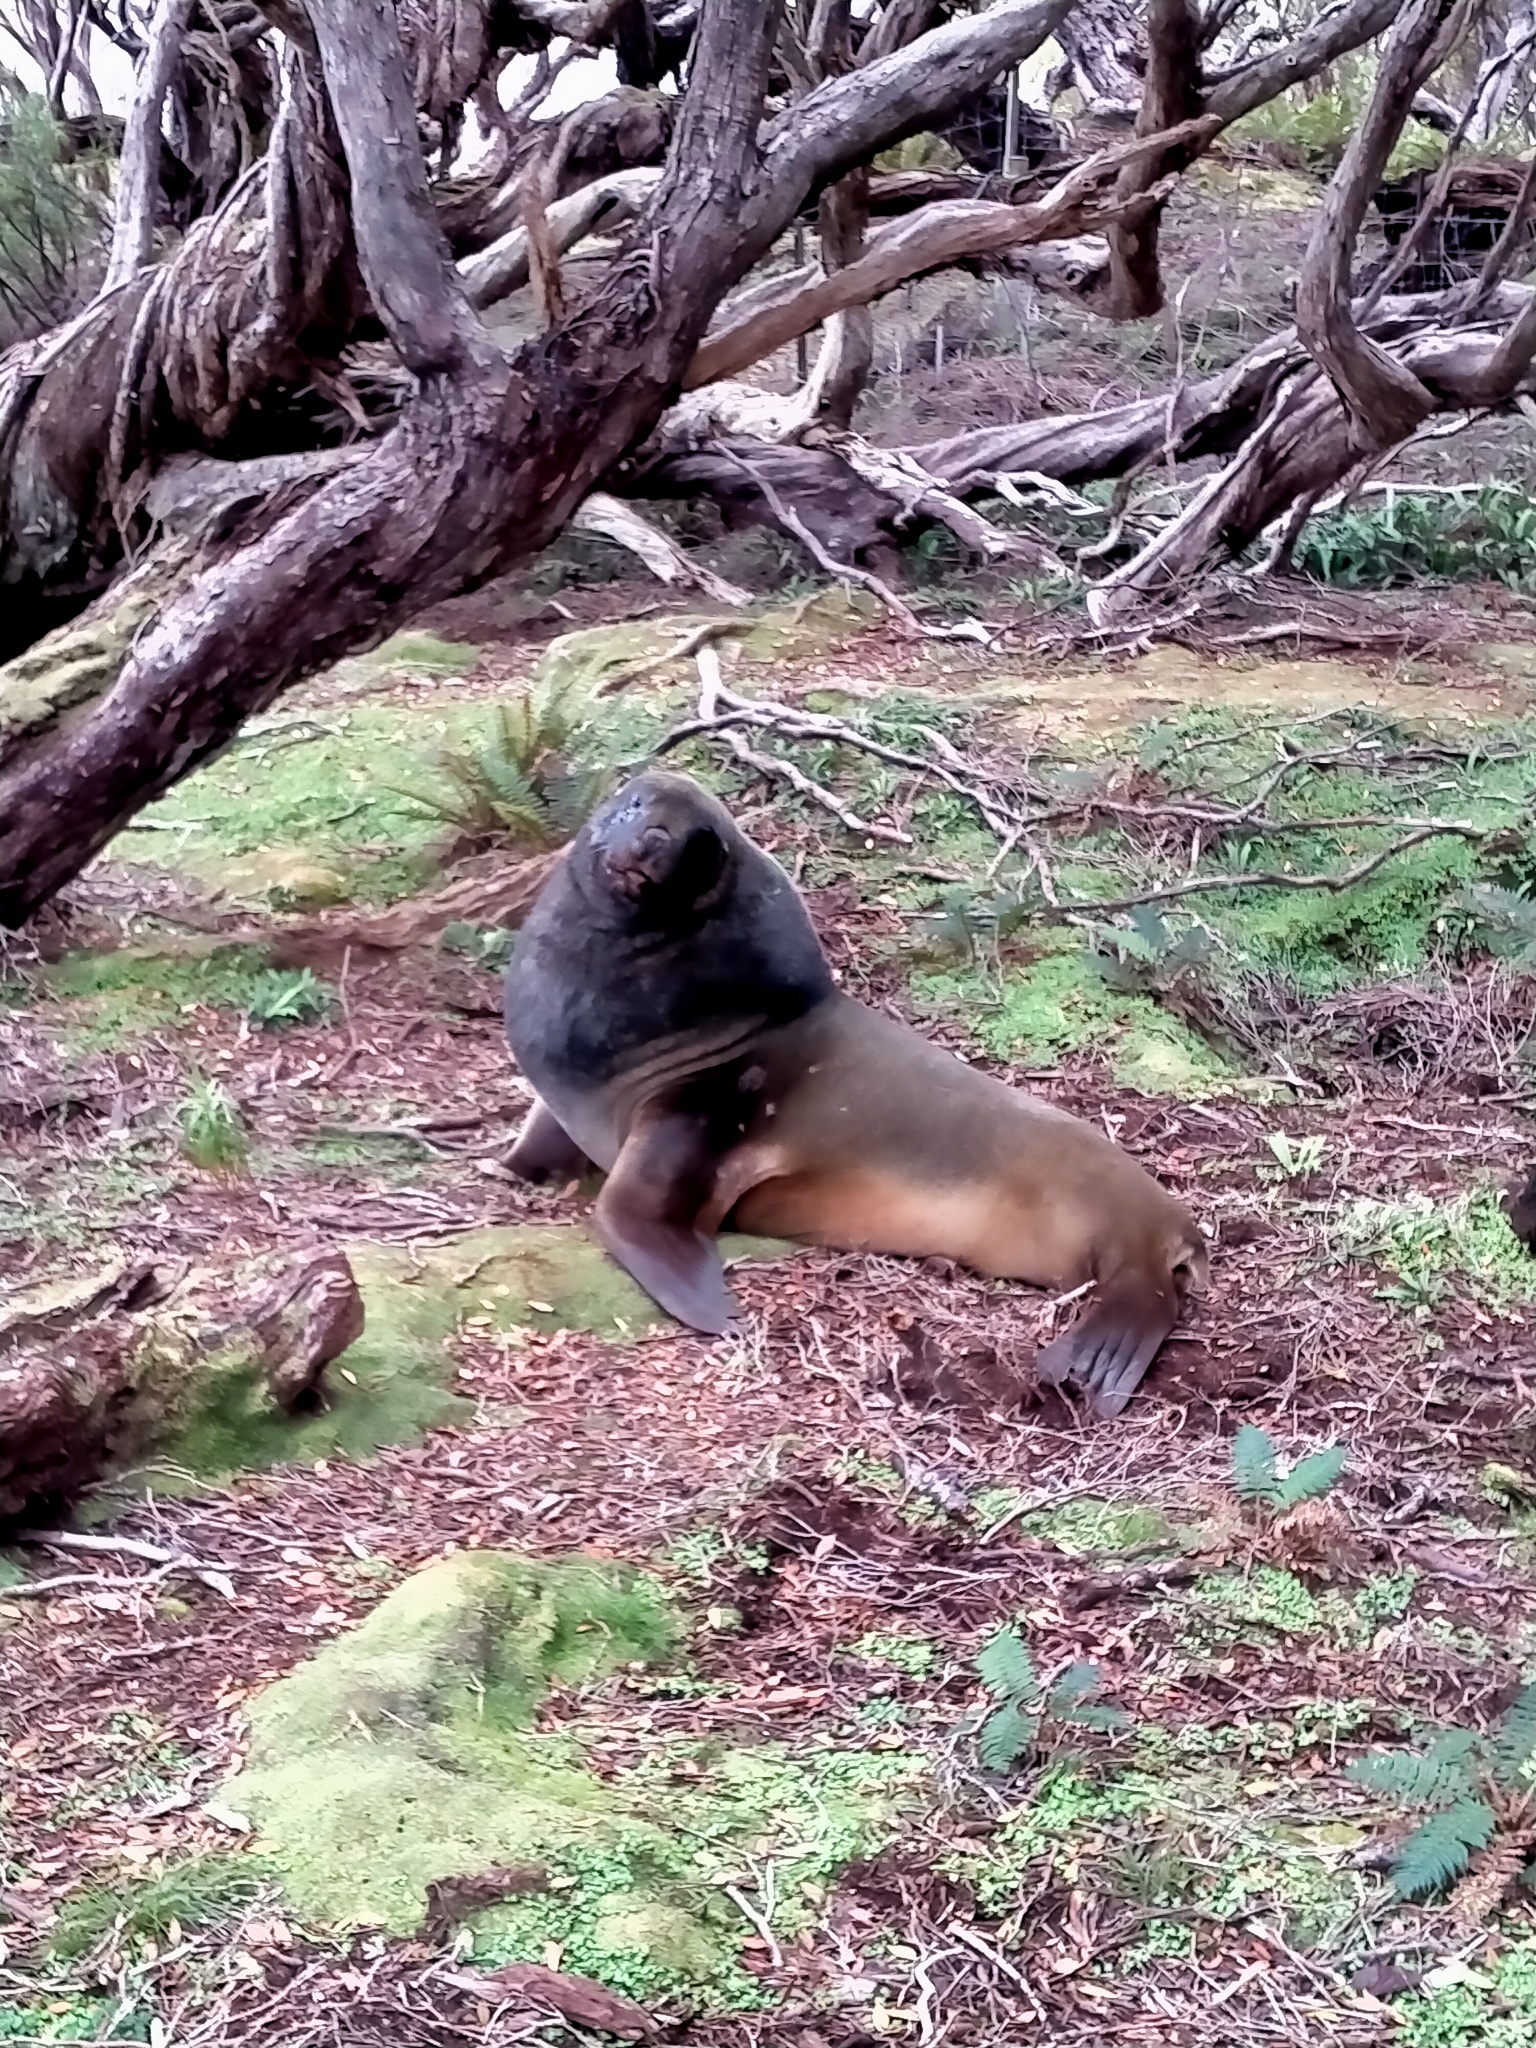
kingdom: Animalia
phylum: Chordata
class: Mammalia
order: Carnivora
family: Otariidae
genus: Phocarctos
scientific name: Phocarctos hookeri
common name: New zealand sea lion
